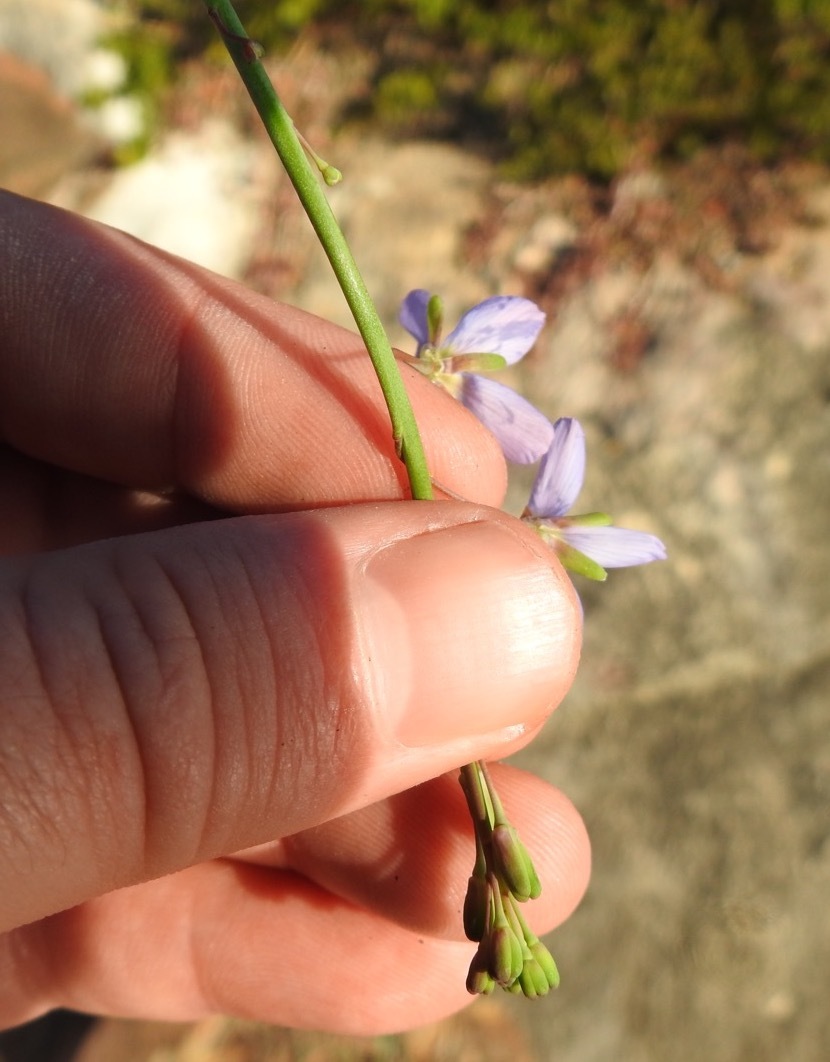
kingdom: Plantae
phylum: Tracheophyta
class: Magnoliopsida
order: Brassicales
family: Brassicaceae
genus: Heliophila
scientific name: Heliophila linearis
